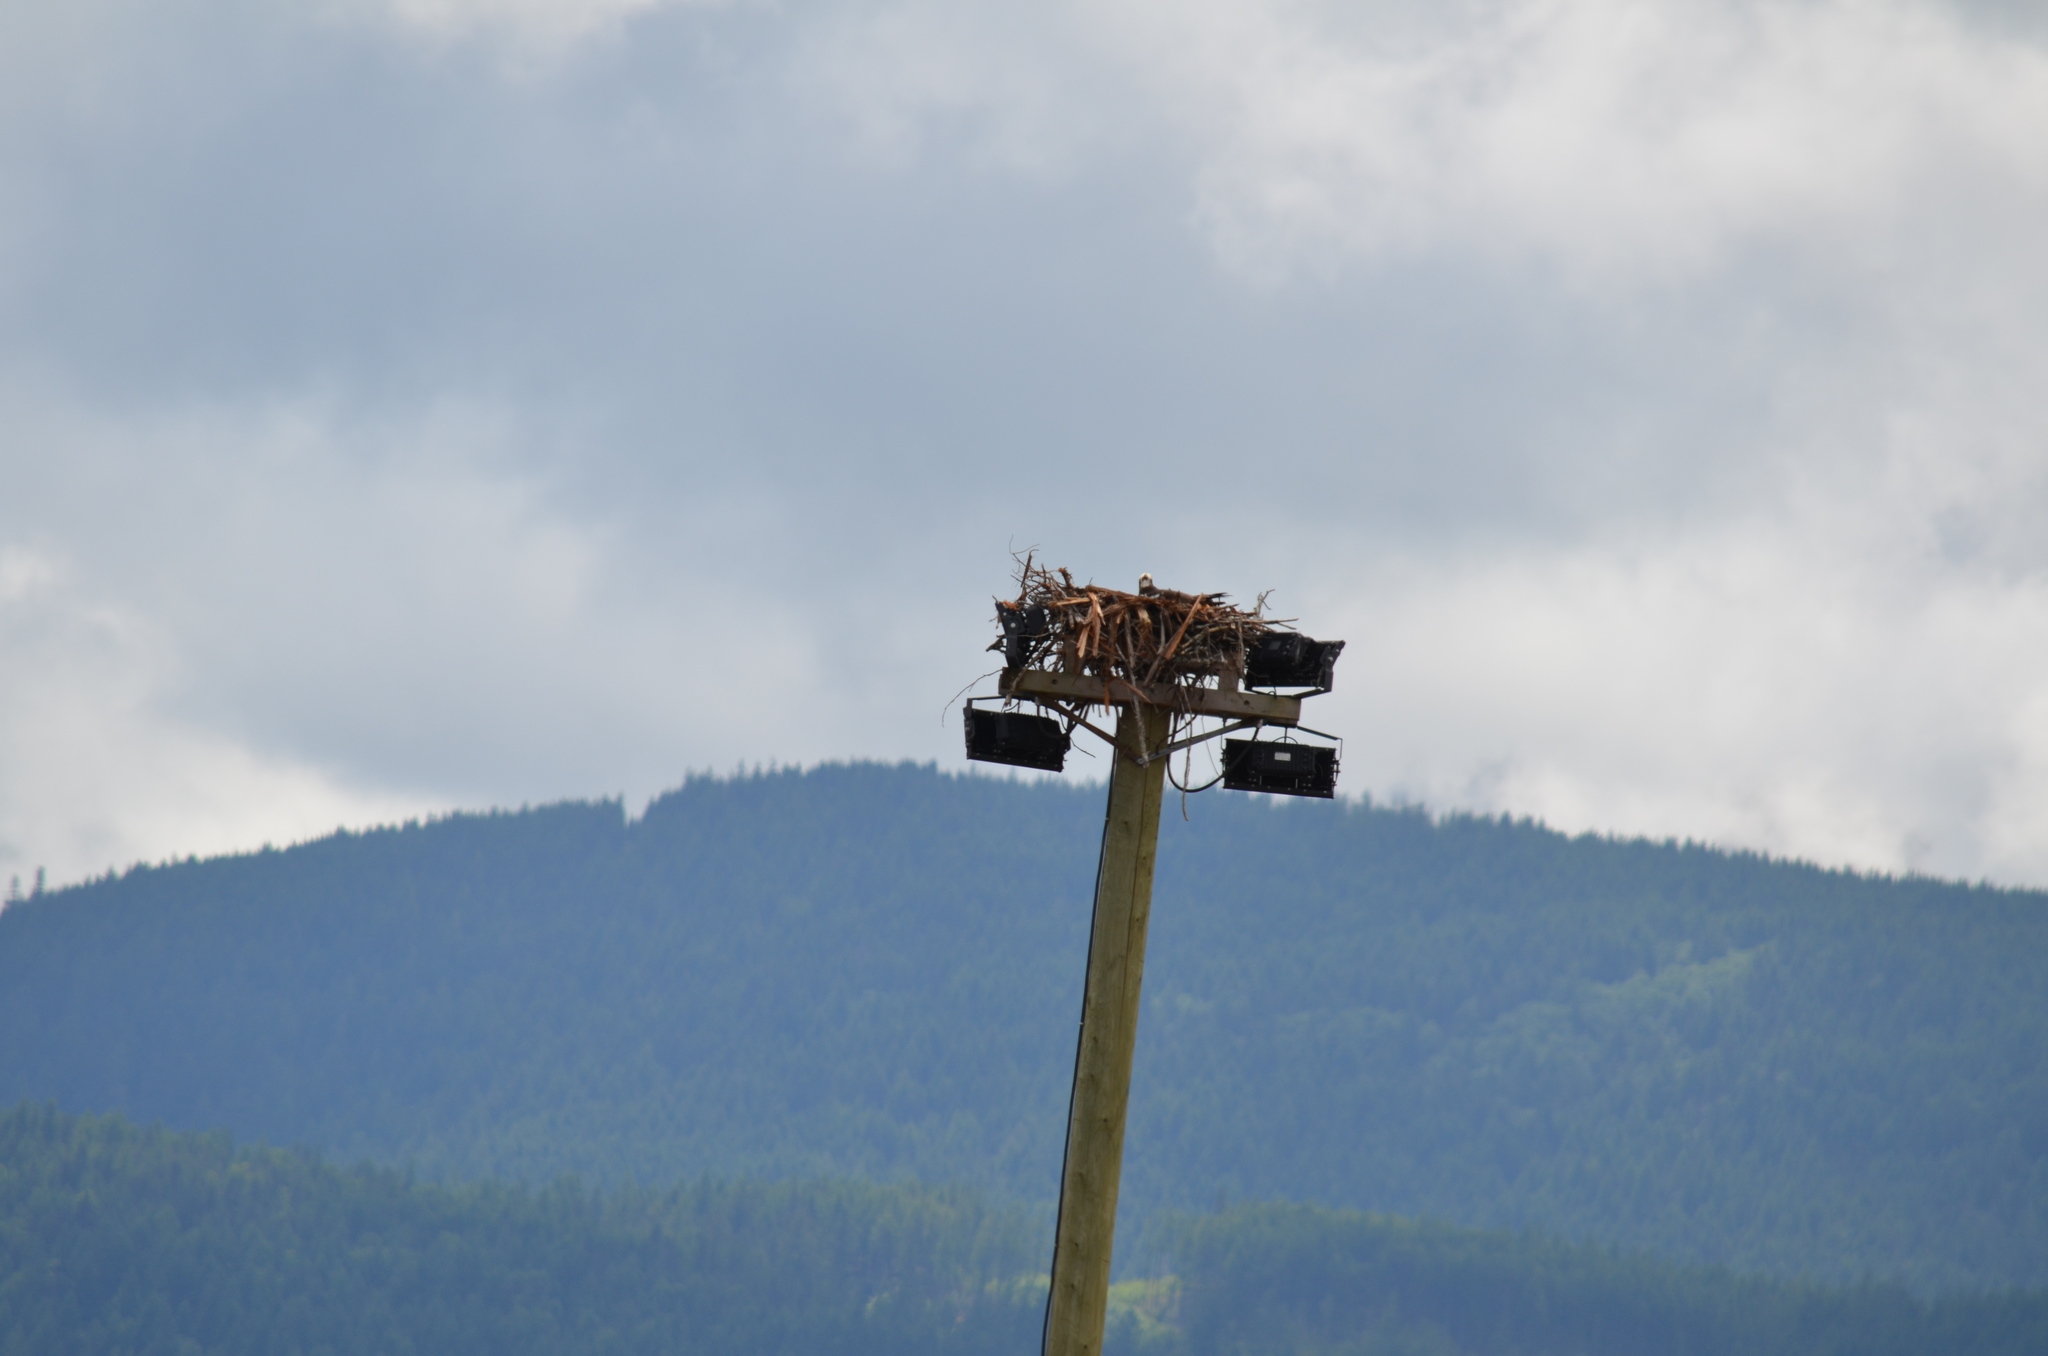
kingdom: Animalia
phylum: Chordata
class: Aves
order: Accipitriformes
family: Pandionidae
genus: Pandion
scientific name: Pandion haliaetus
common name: Osprey
